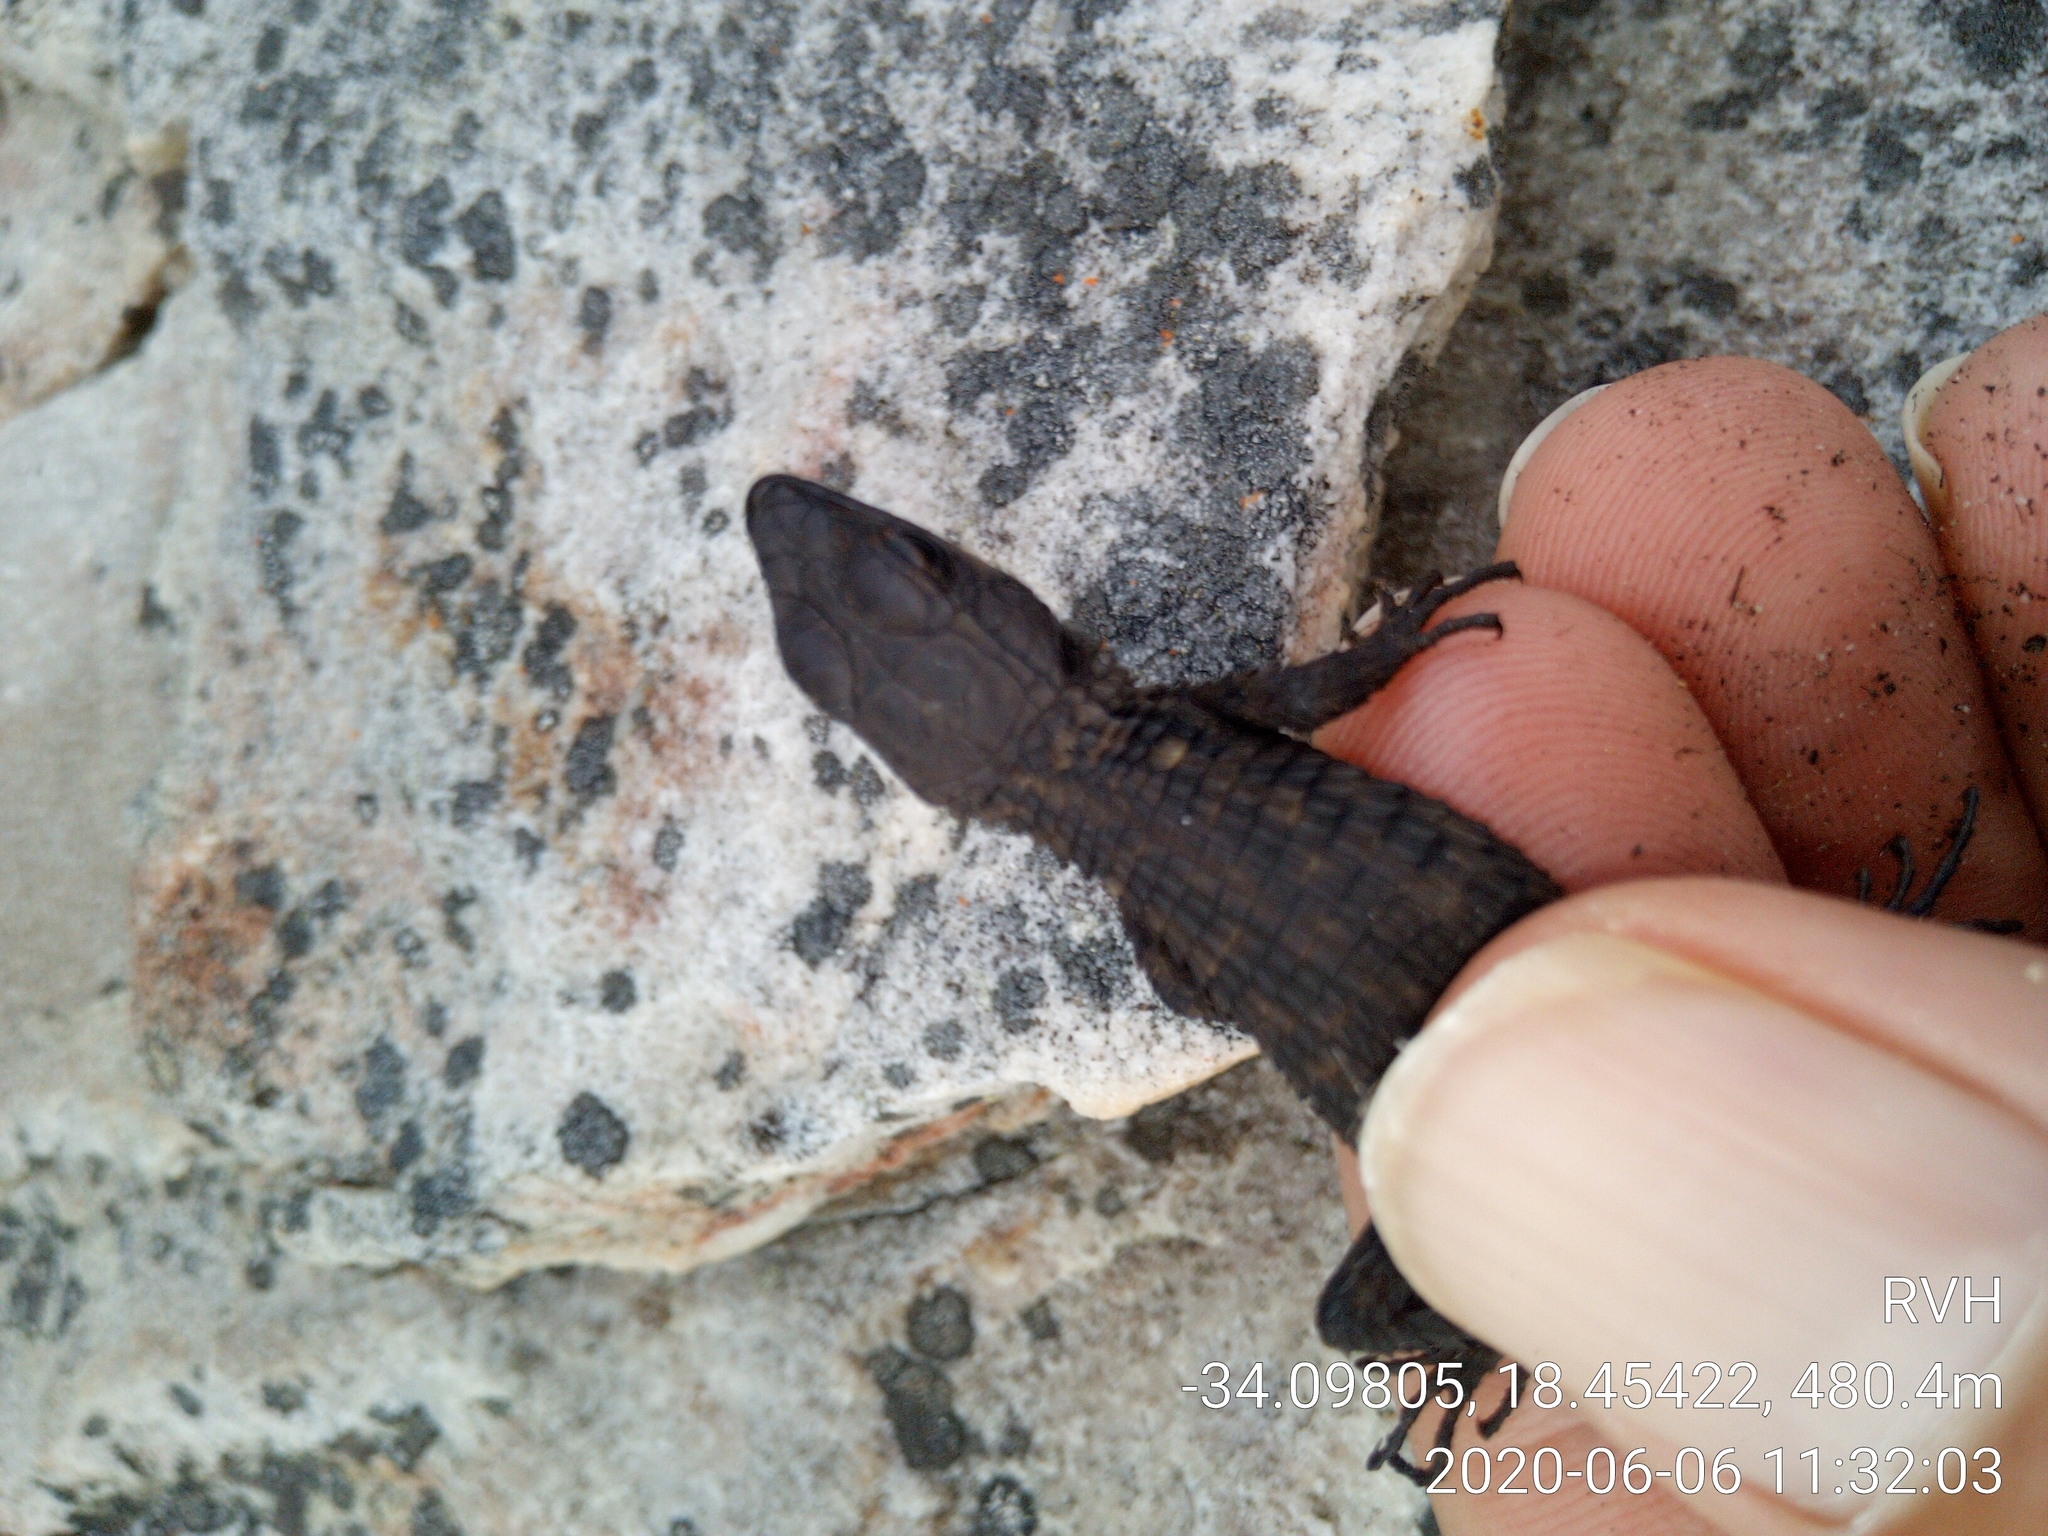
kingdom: Animalia
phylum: Chordata
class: Squamata
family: Cordylidae
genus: Cordylus
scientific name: Cordylus niger
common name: Black girdled lizard
